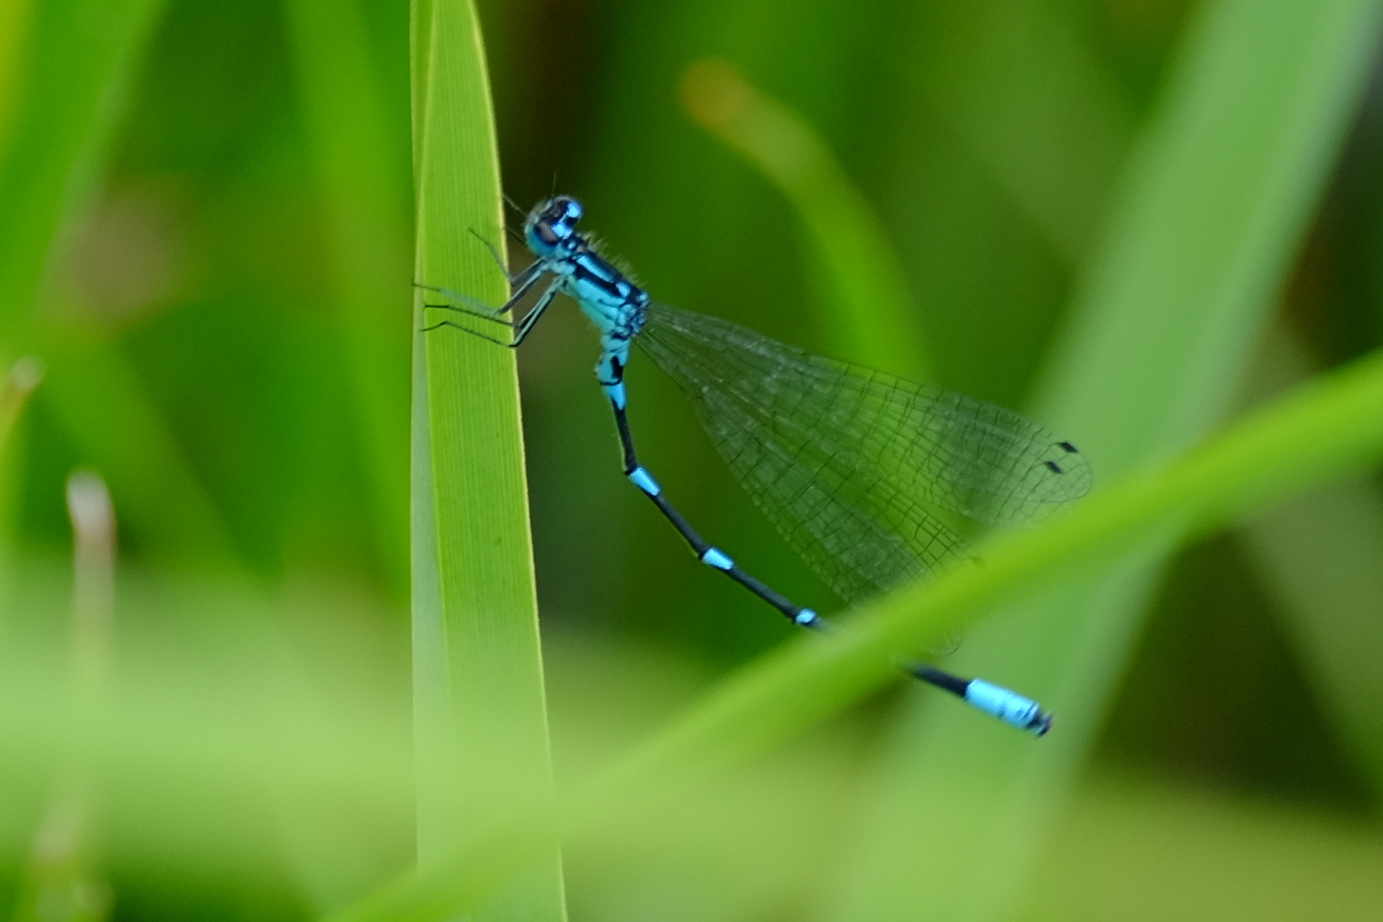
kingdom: Animalia
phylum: Arthropoda
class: Insecta
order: Odonata
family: Coenagrionidae
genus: Coenagrion
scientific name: Coenagrion pulchellum
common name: Variable bluet
